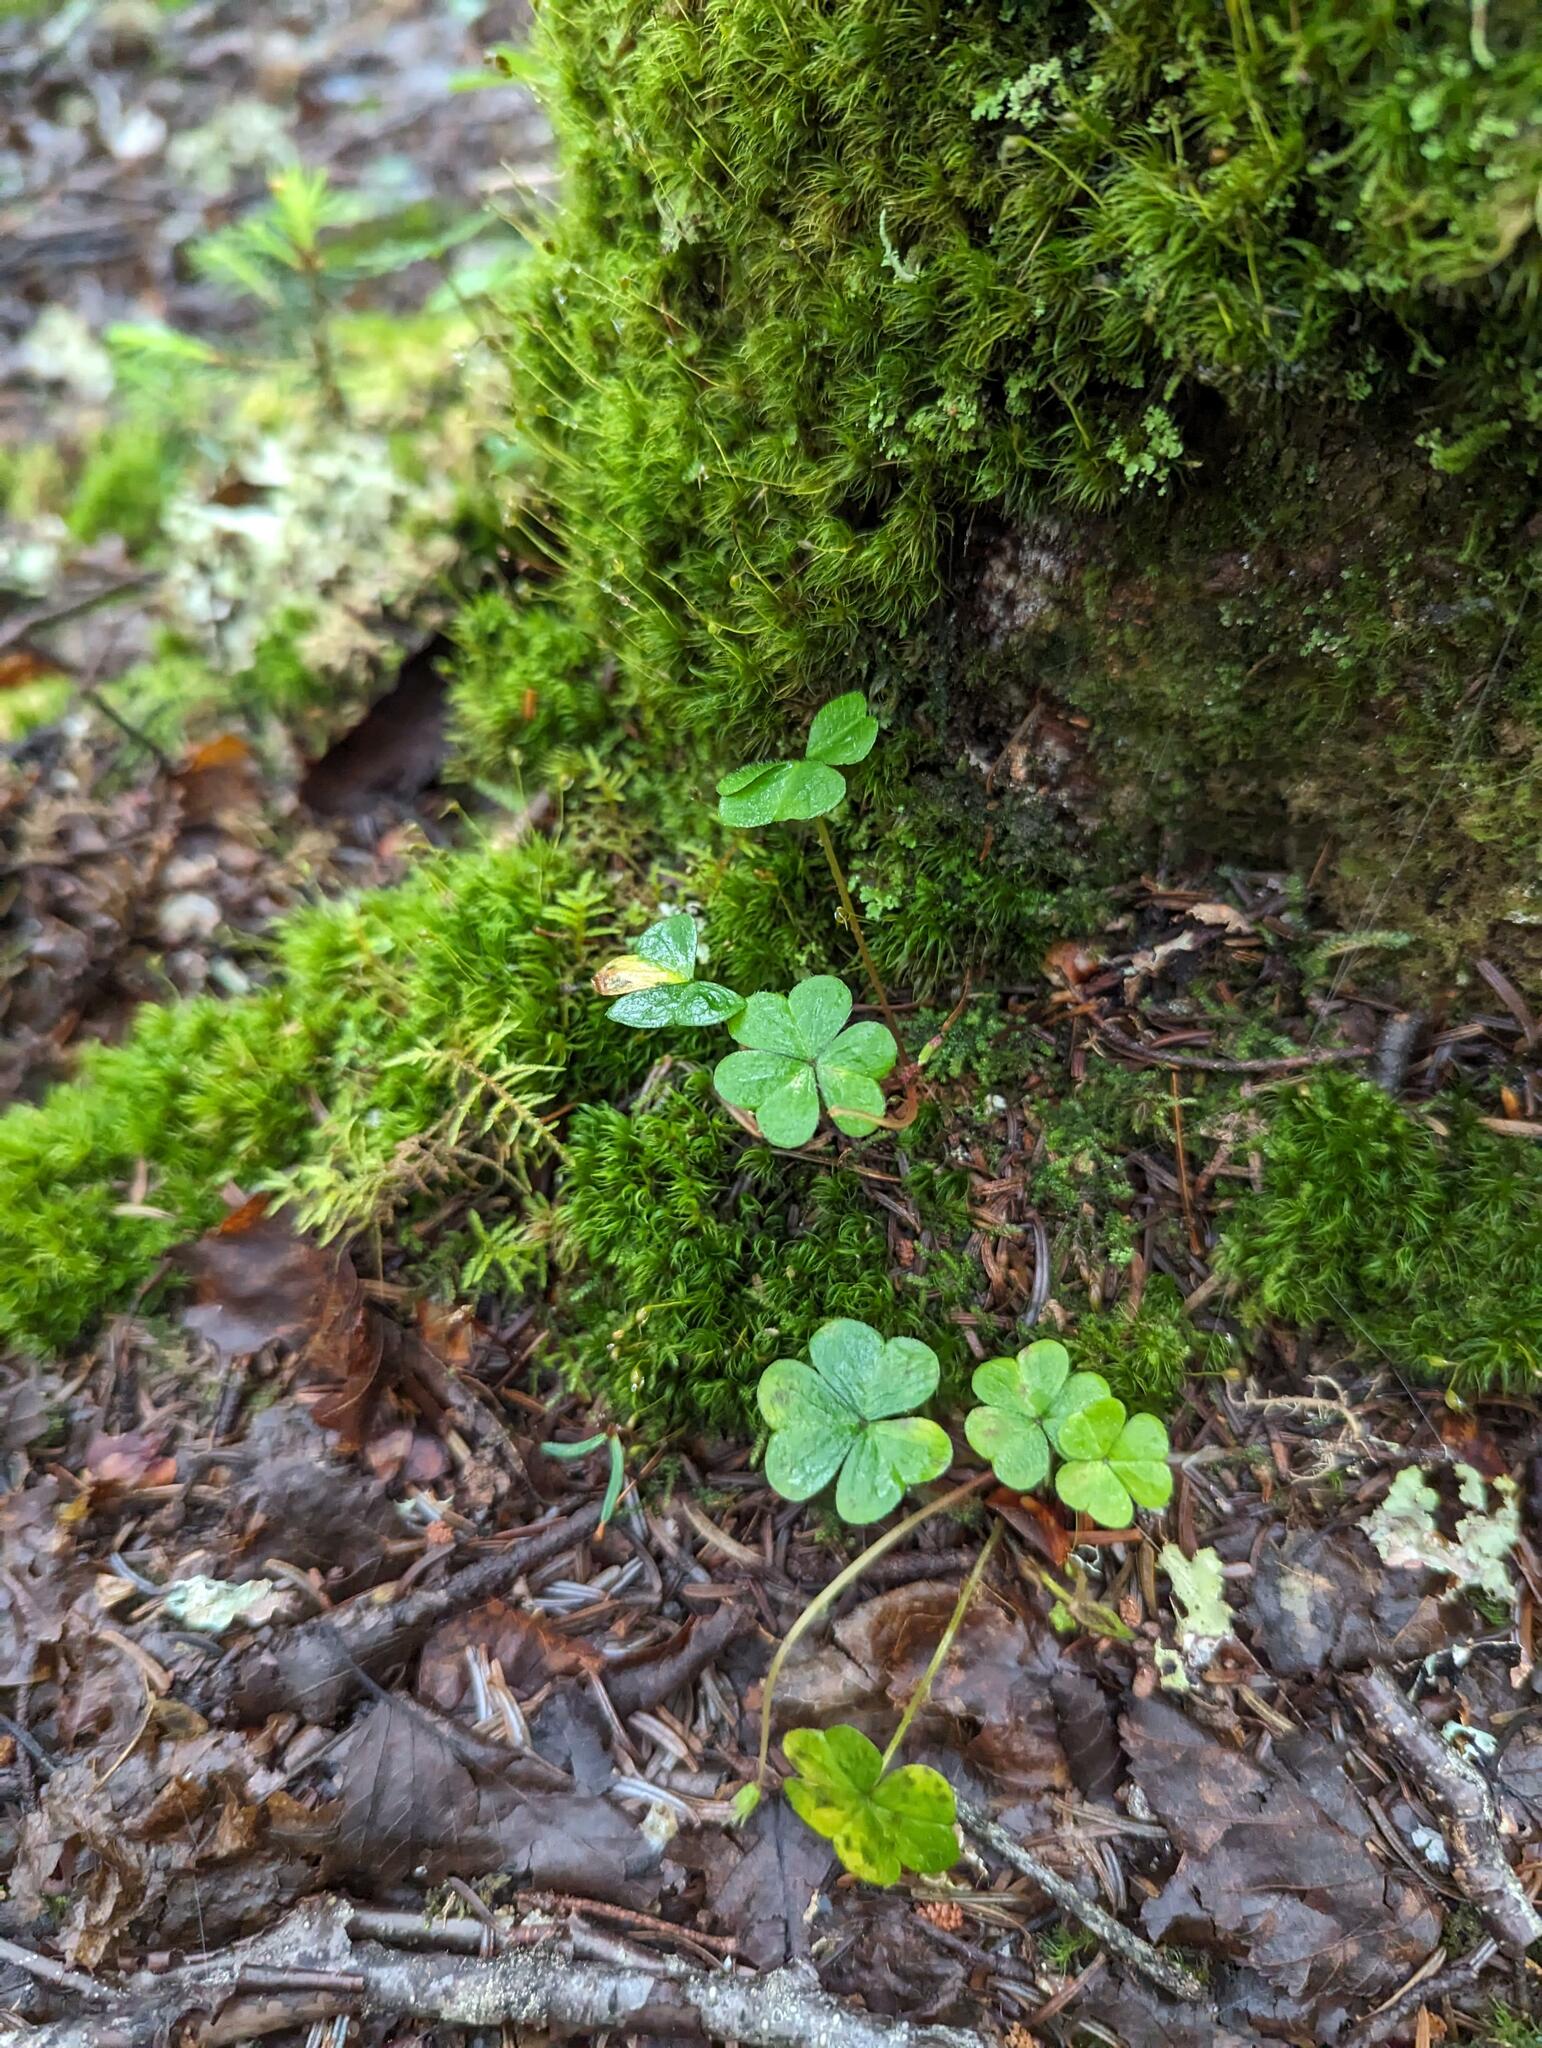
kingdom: Plantae
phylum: Tracheophyta
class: Magnoliopsida
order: Oxalidales
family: Oxalidaceae
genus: Oxalis
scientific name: Oxalis montana
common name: American wood-sorrel
